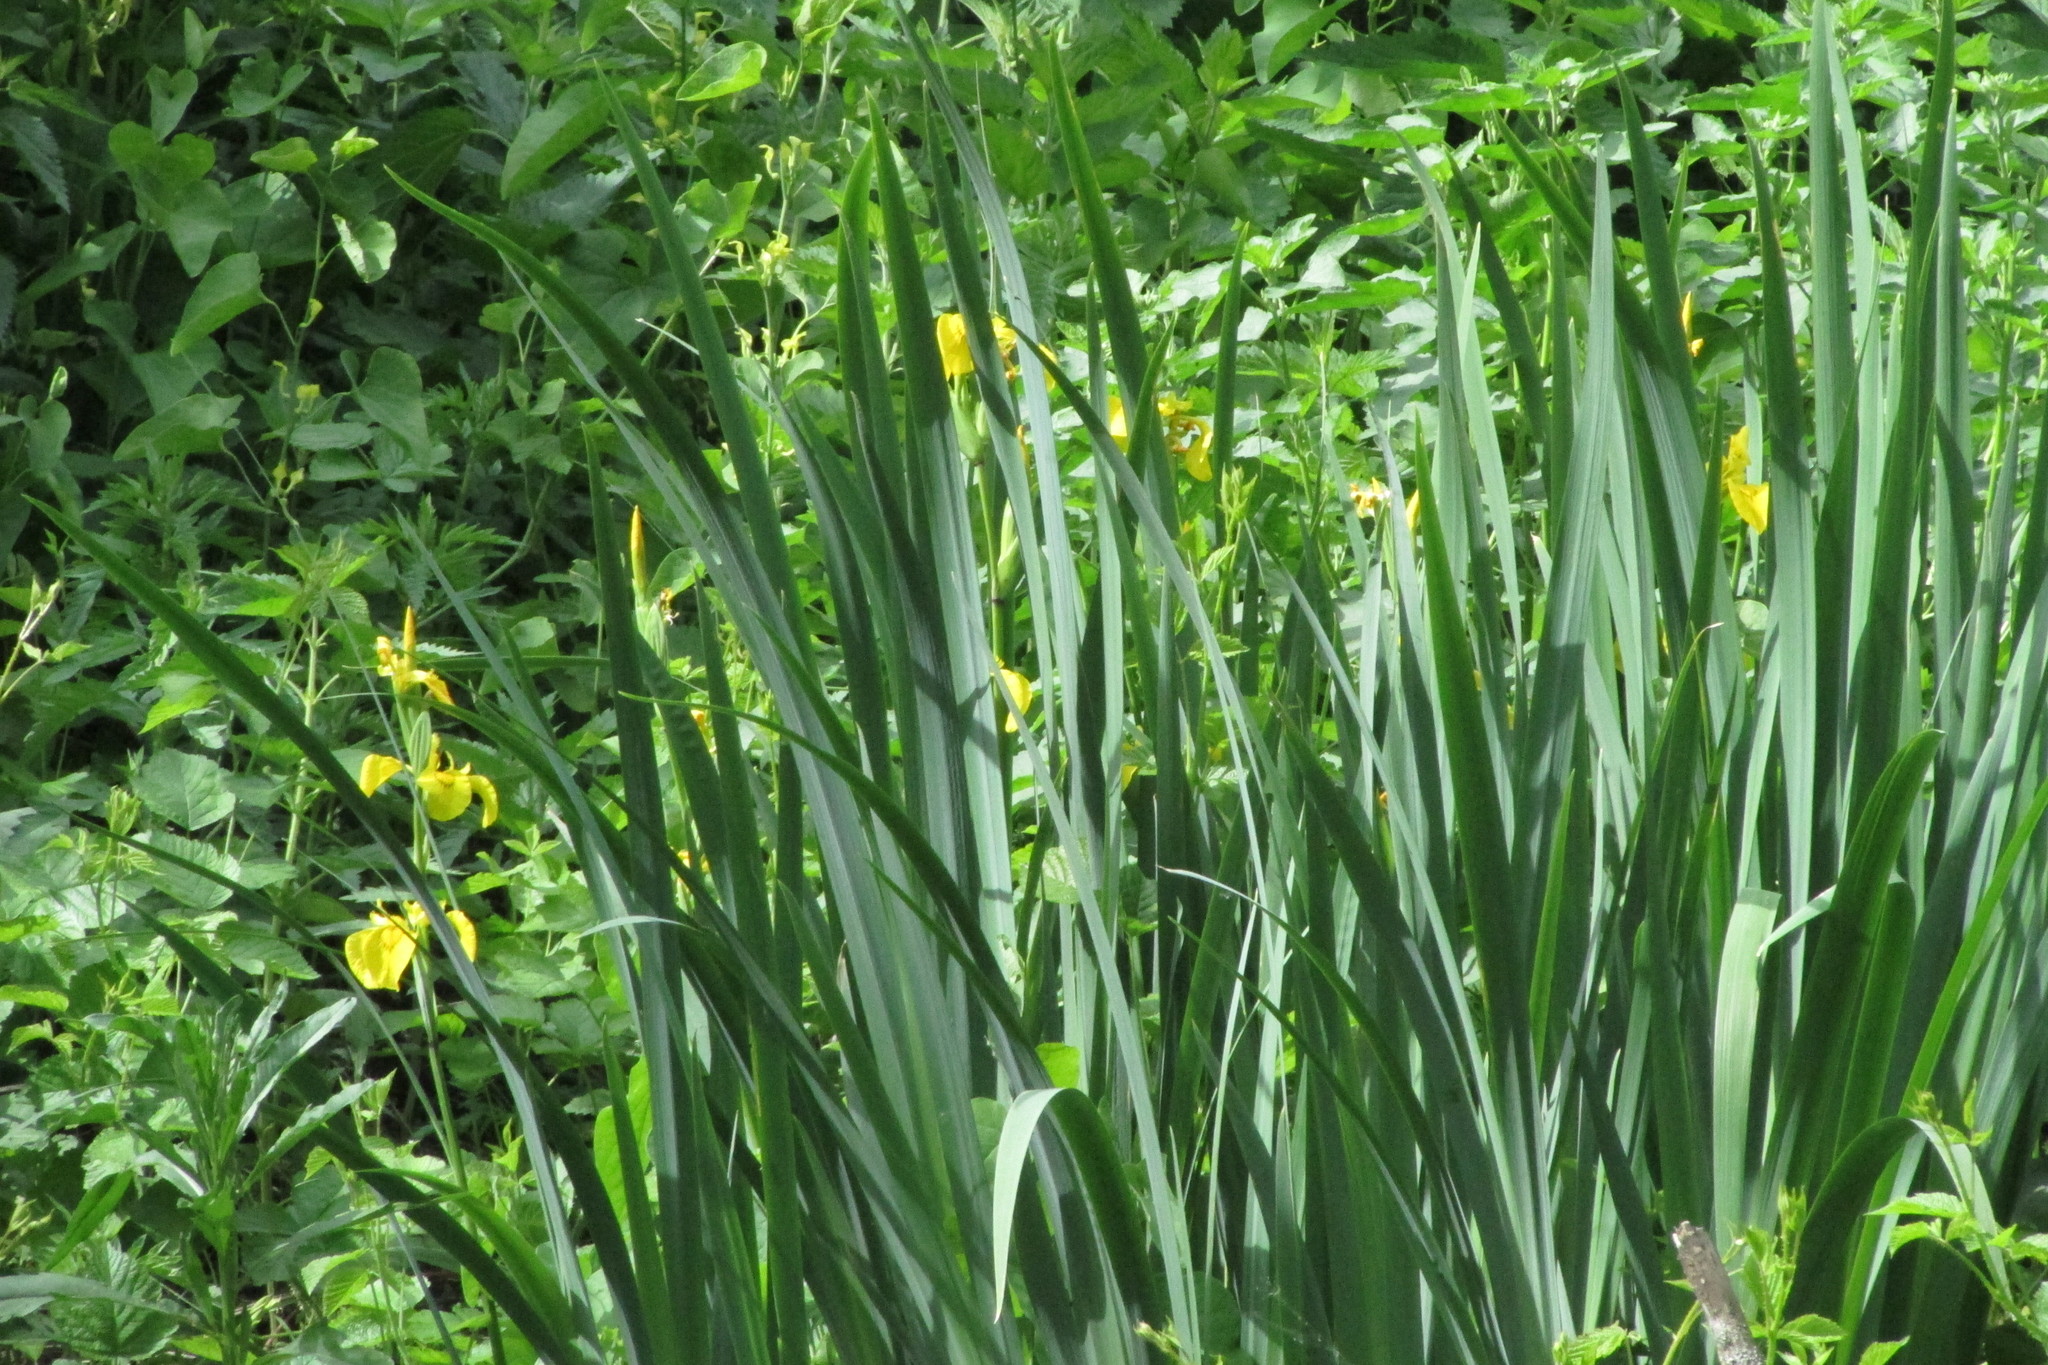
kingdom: Plantae
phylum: Tracheophyta
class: Liliopsida
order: Asparagales
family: Iridaceae
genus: Iris
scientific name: Iris pseudacorus
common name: Yellow flag
